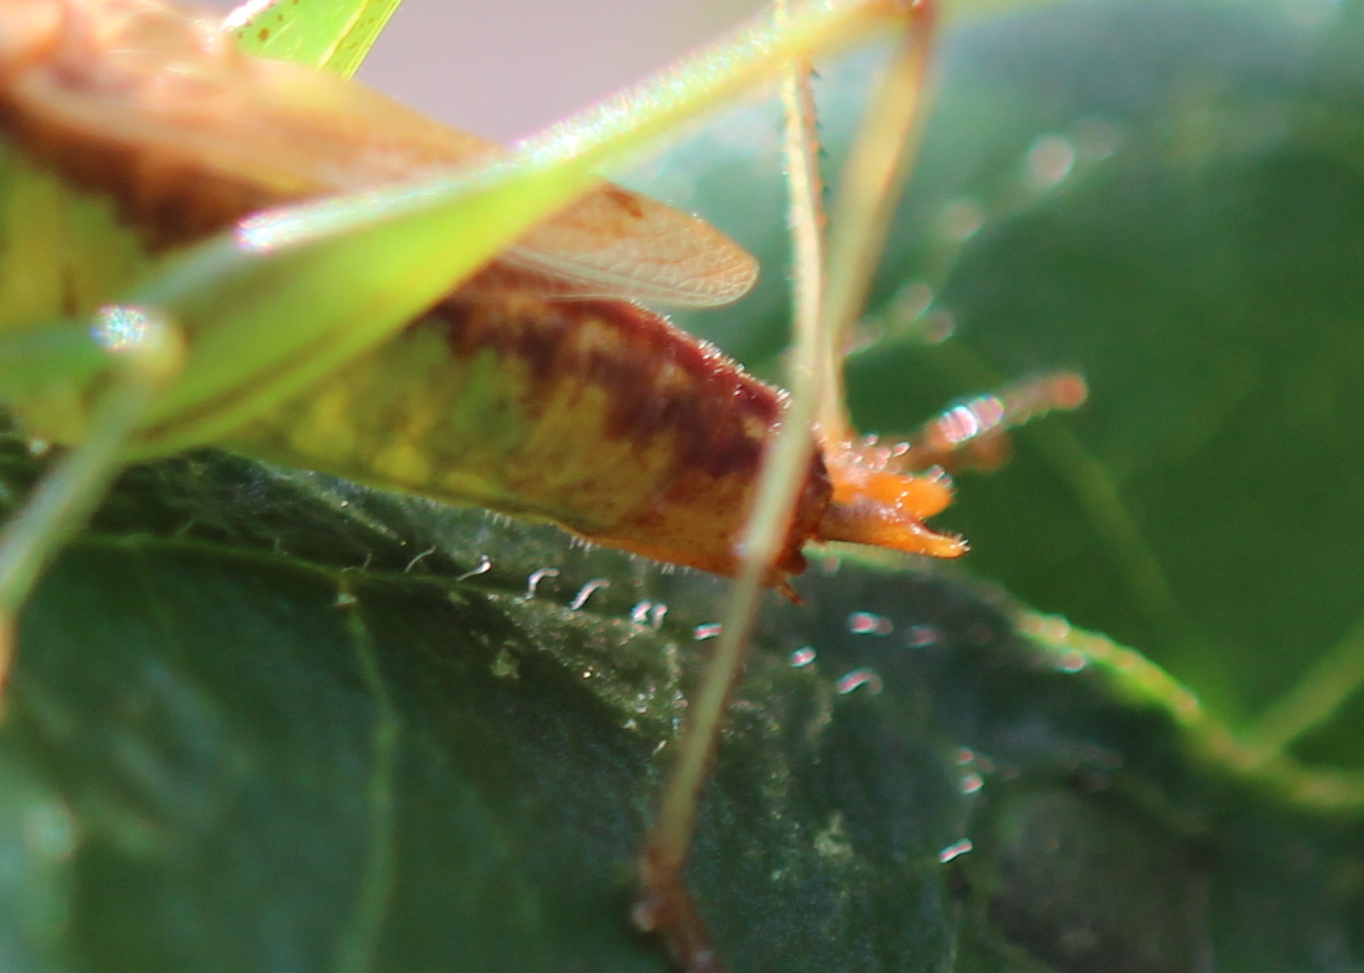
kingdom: Animalia
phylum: Arthropoda
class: Insecta
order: Orthoptera
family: Tettigoniidae
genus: Conocephalus
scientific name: Conocephalus brevipennis
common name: Short-winged meadow katydid
